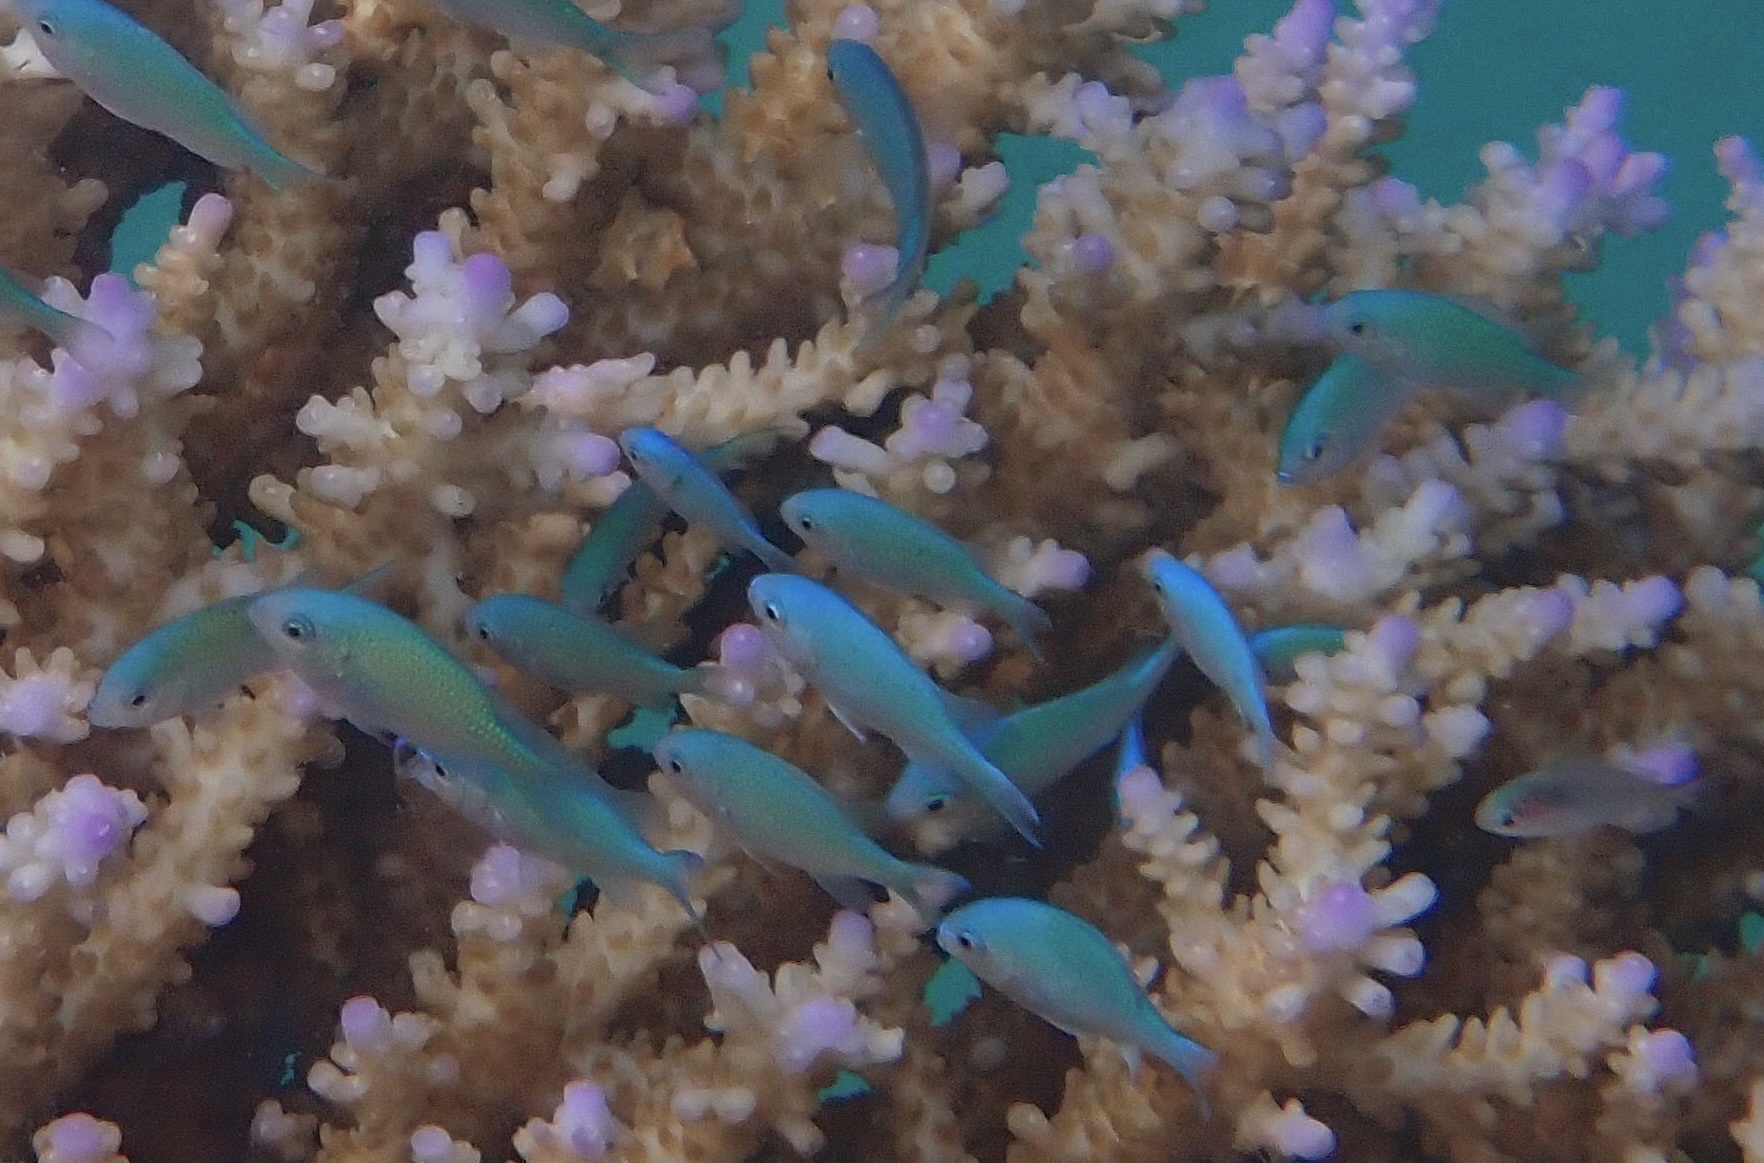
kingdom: Animalia
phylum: Chordata
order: Perciformes
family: Pomacentridae
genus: Chromis
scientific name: Chromis viridis
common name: Blue-green chromis
